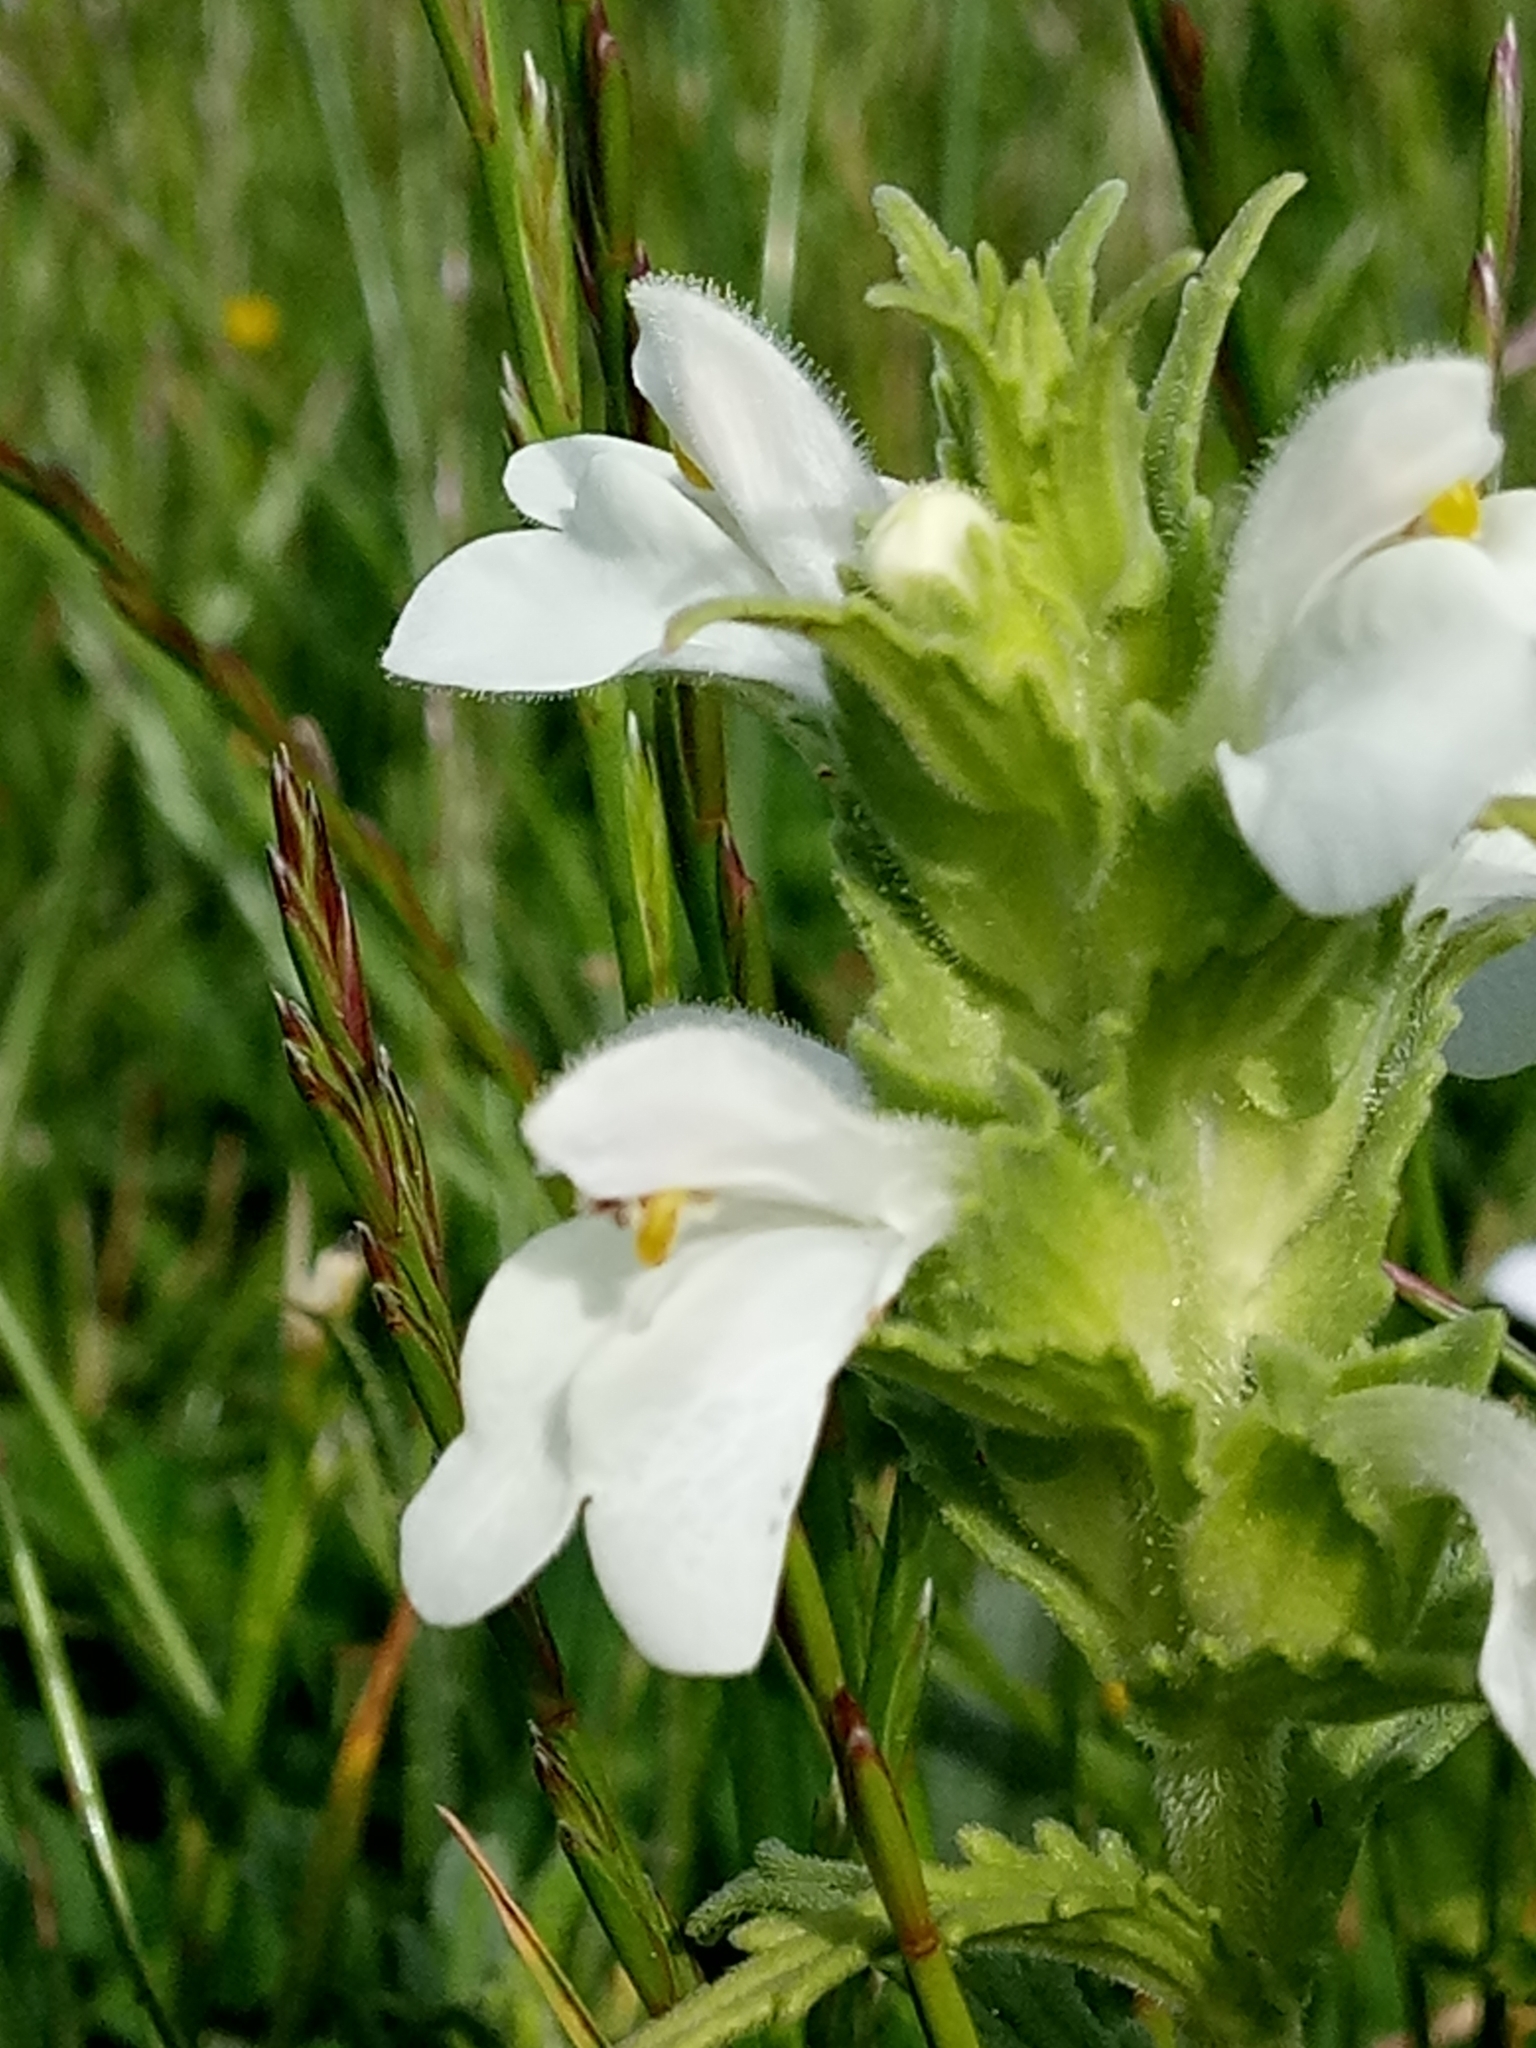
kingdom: Plantae
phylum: Tracheophyta
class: Magnoliopsida
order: Lamiales
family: Orobanchaceae
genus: Bellardia
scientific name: Bellardia trixago
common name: Mediterranean lineseed
